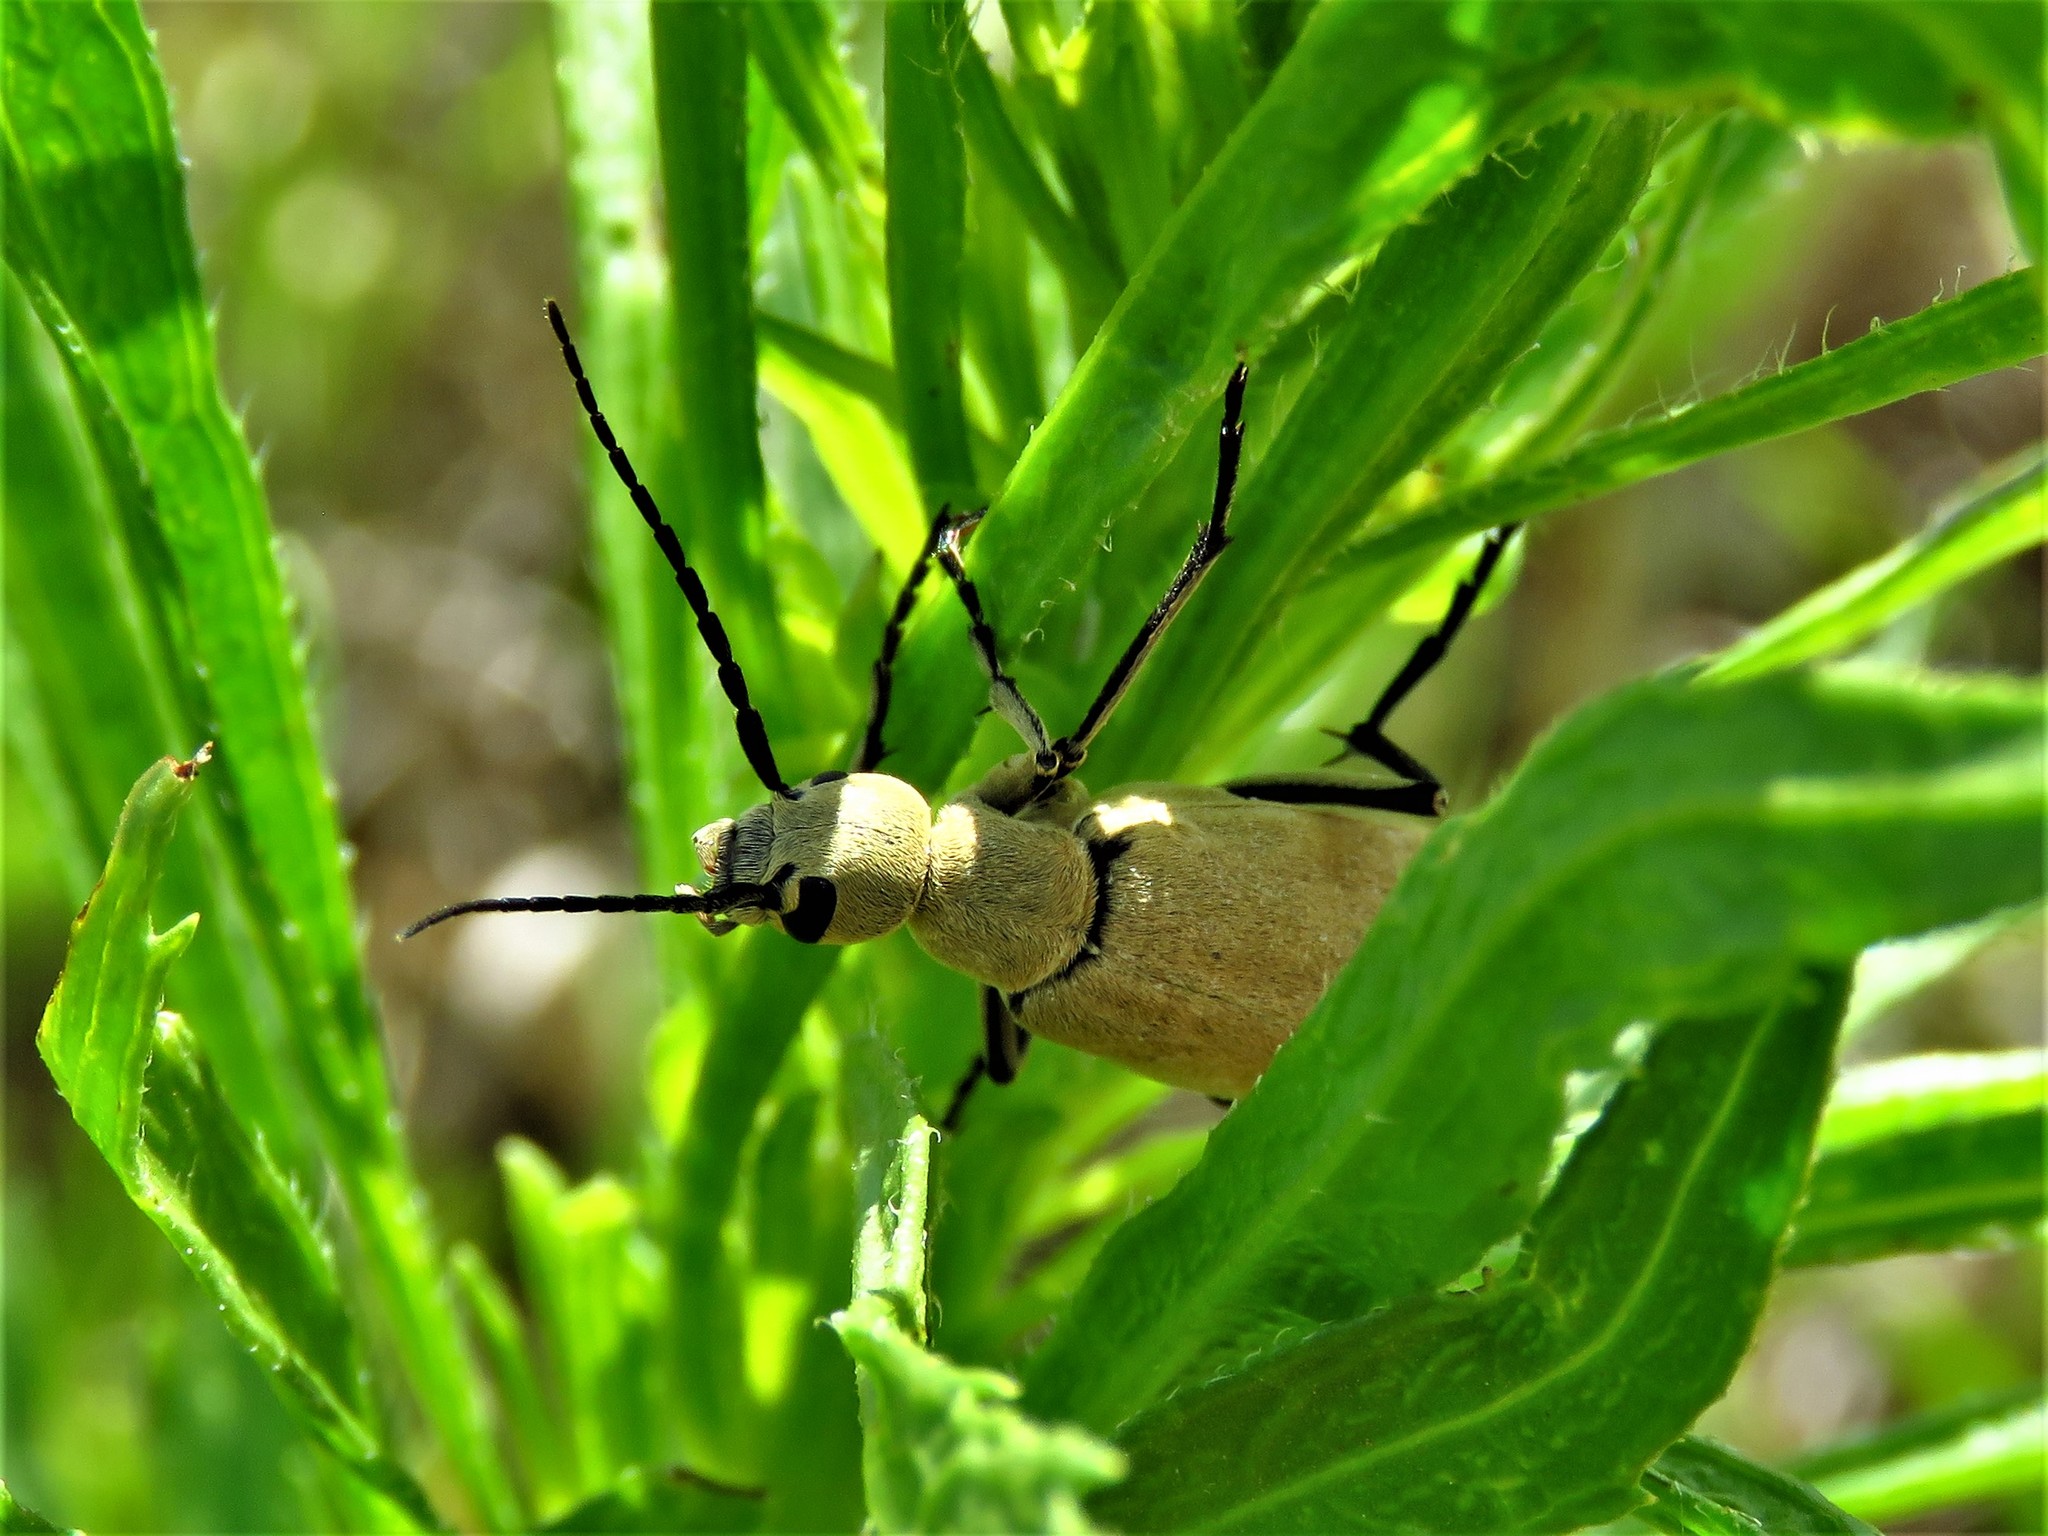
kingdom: Animalia
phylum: Arthropoda
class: Insecta
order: Coleoptera
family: Meloidae
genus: Epicauta
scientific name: Epicauta immaculata
